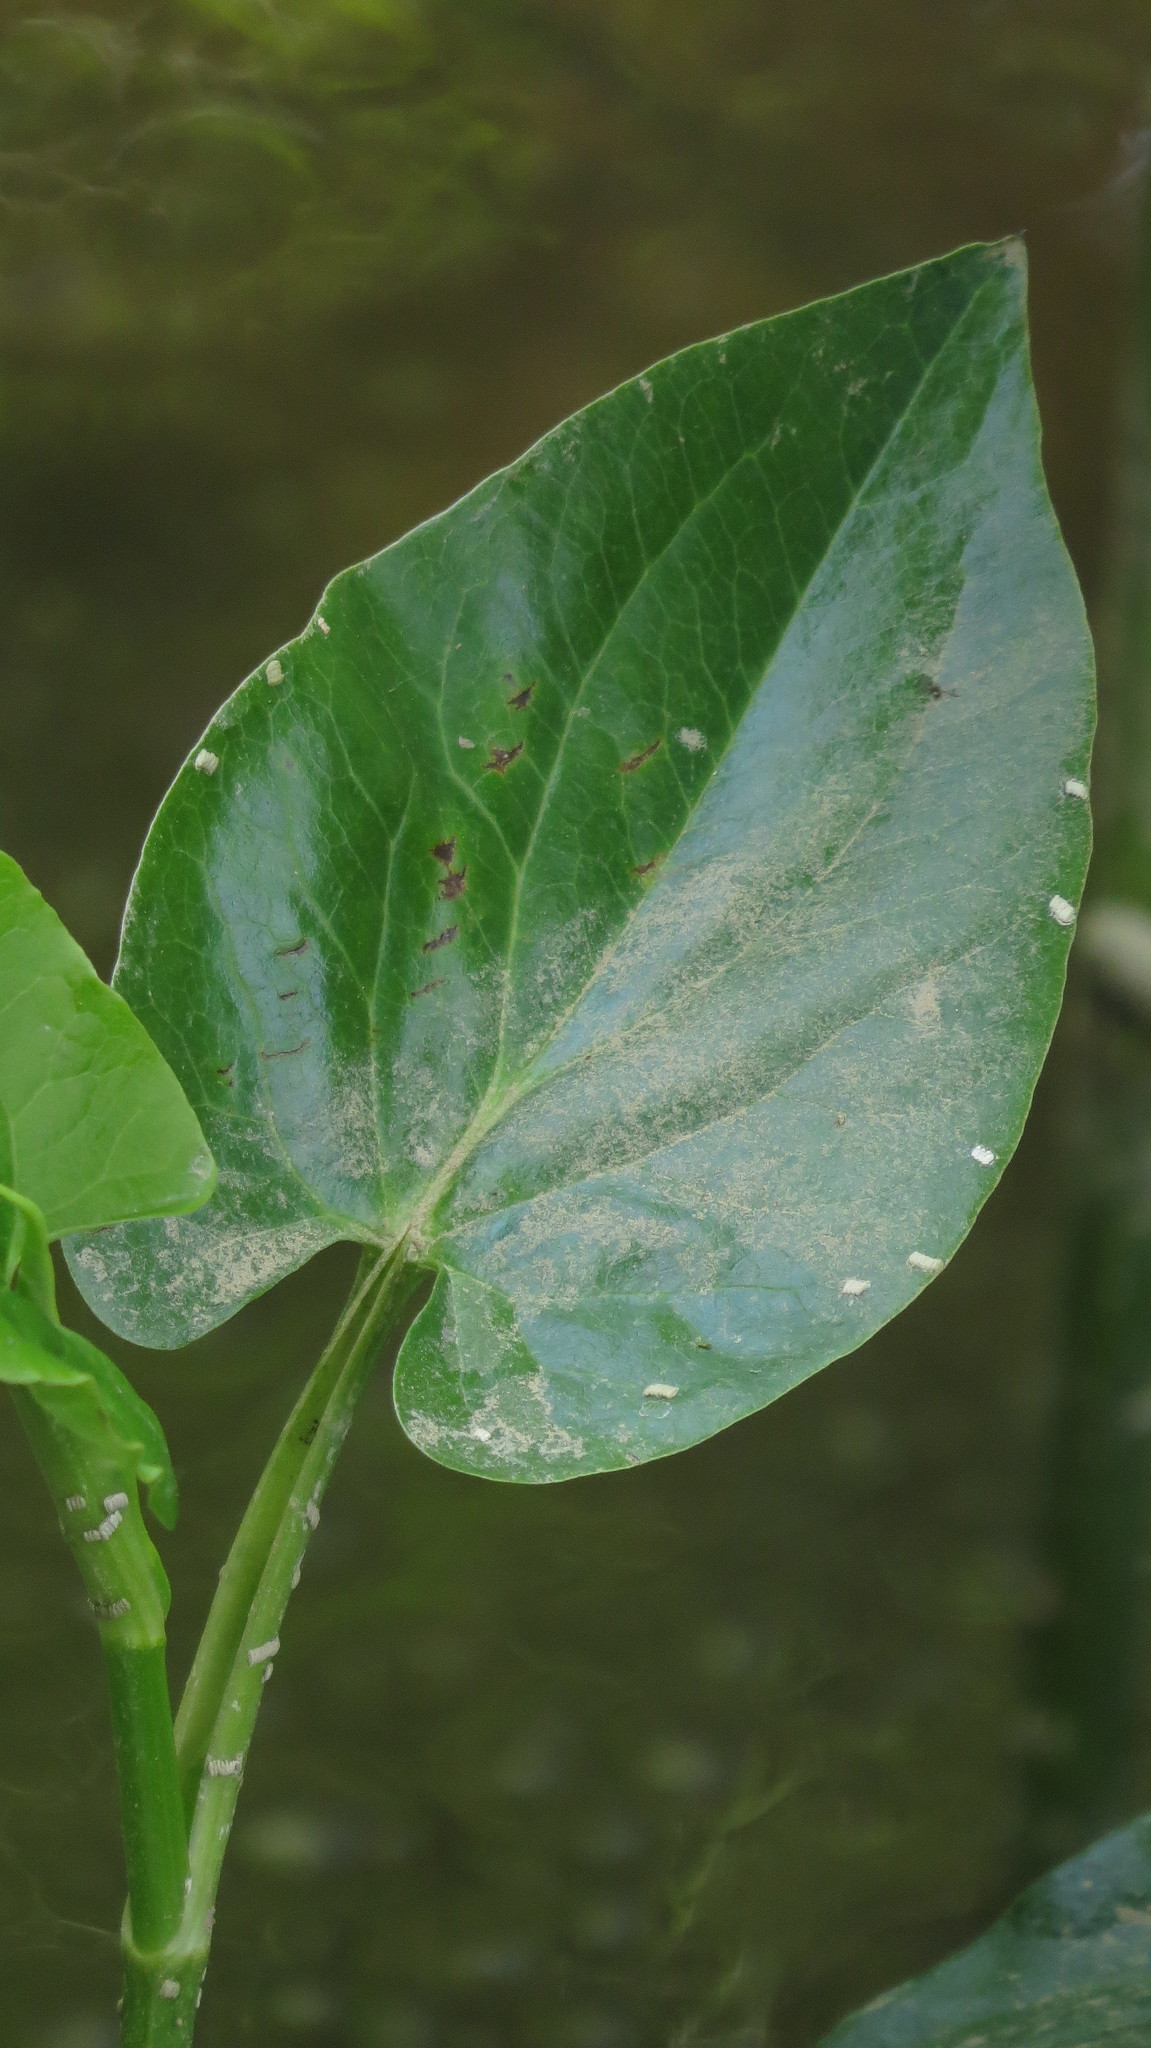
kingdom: Plantae
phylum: Tracheophyta
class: Magnoliopsida
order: Piperales
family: Saururaceae
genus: Saururus
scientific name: Saururus cernuus
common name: Lizard's-tail
